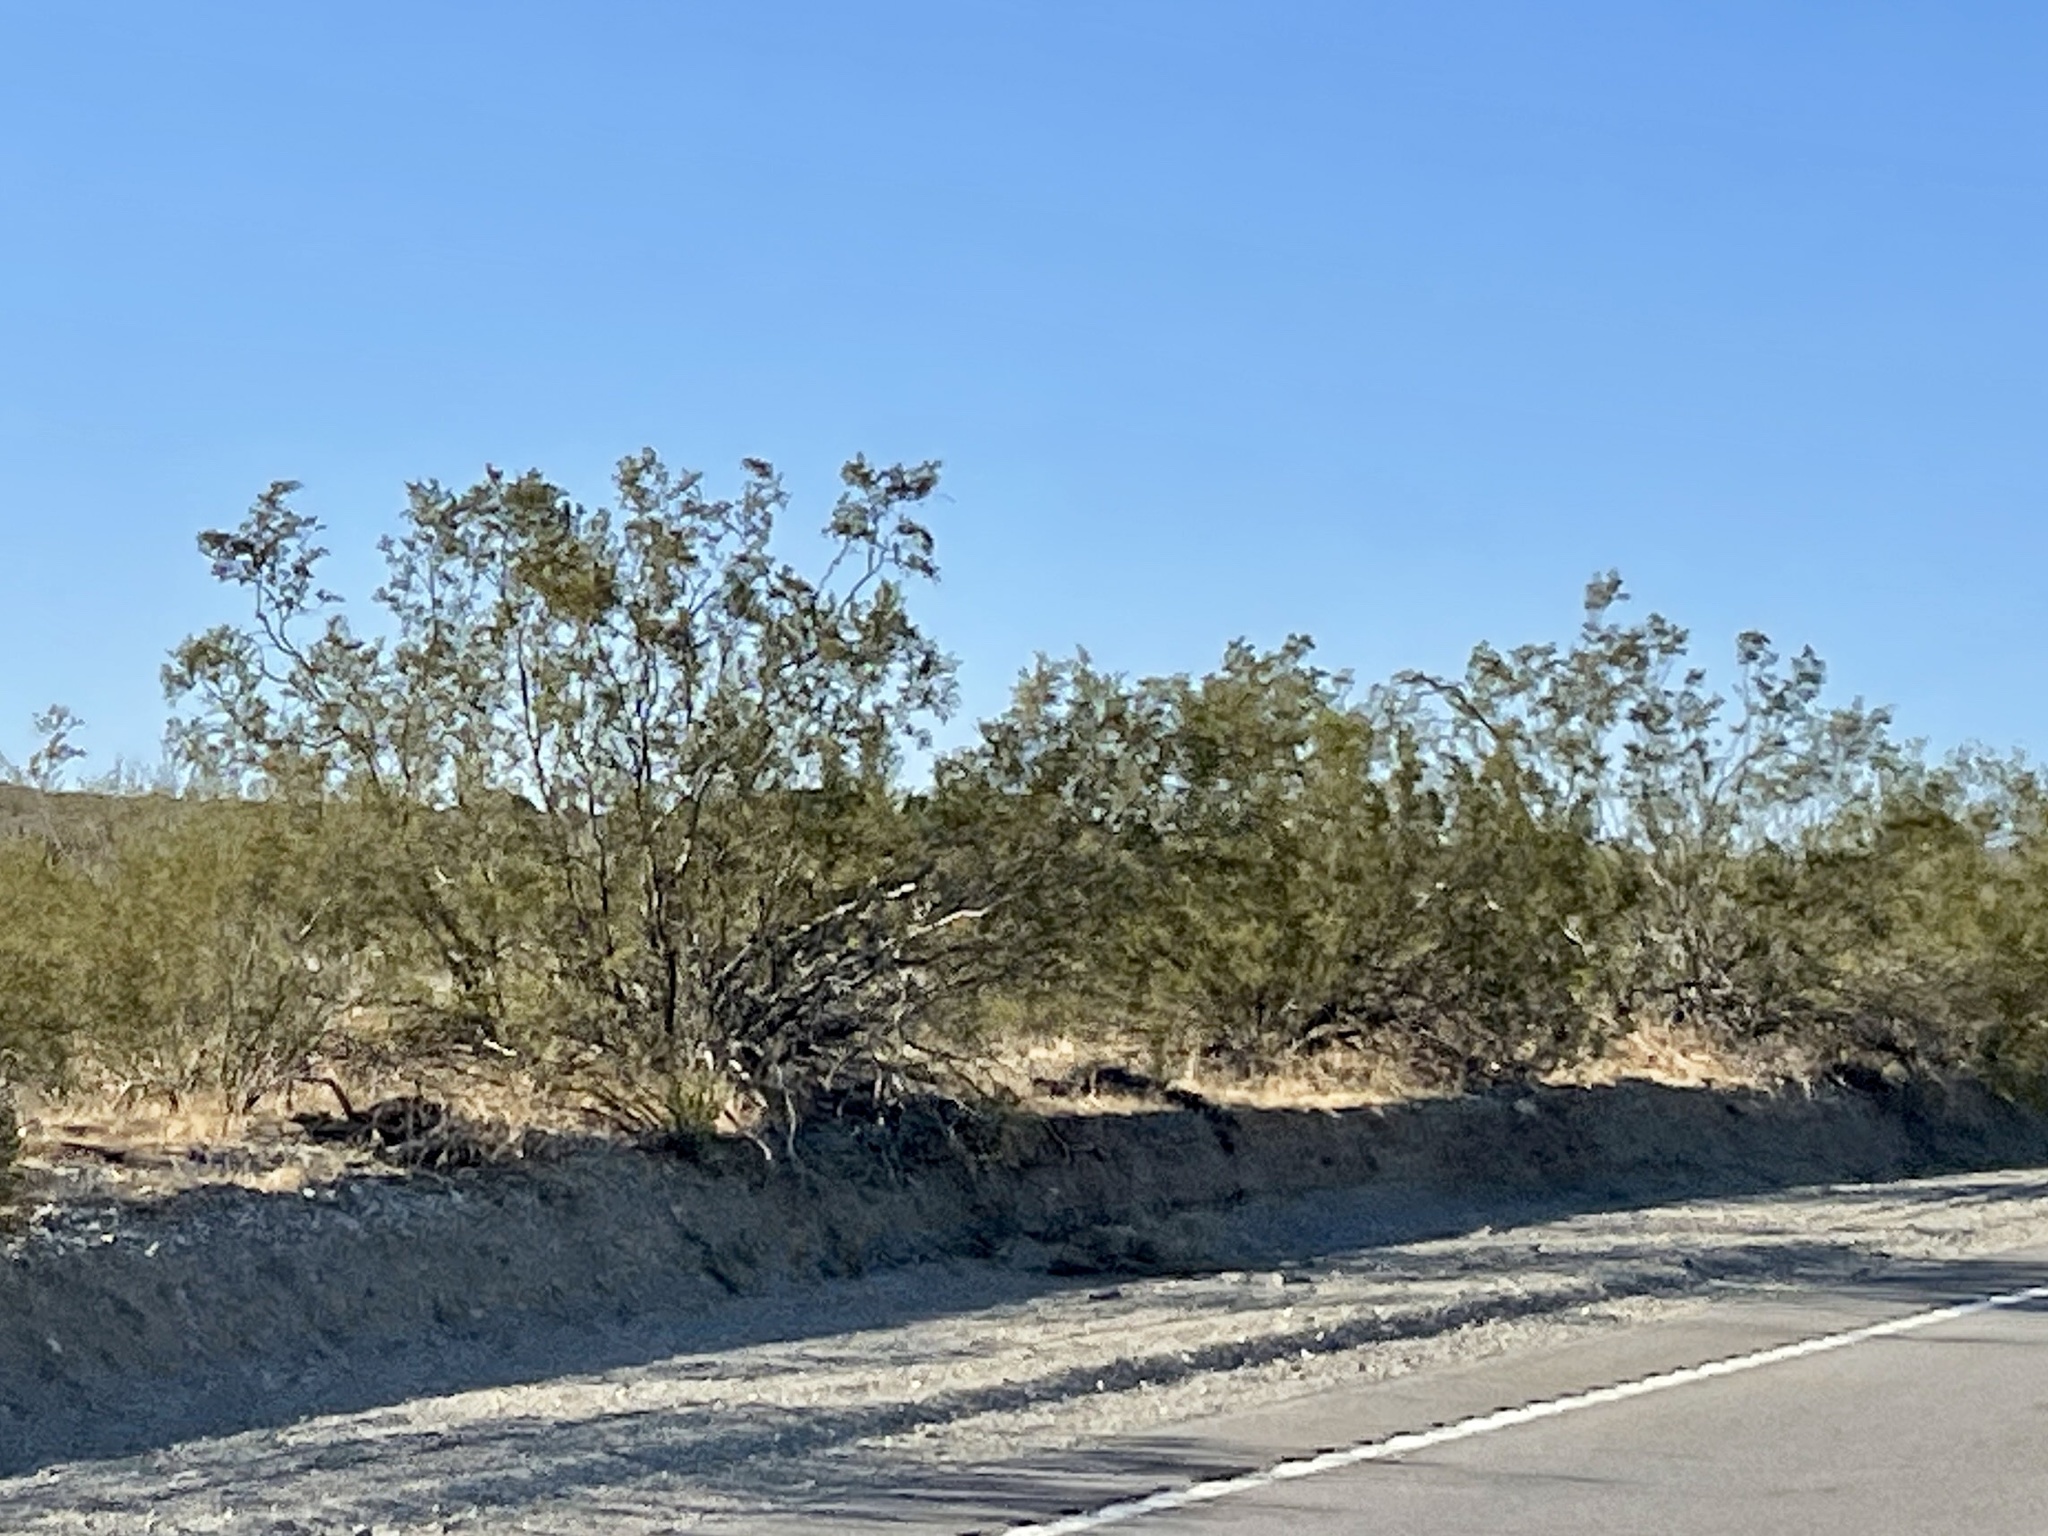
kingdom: Plantae
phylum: Tracheophyta
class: Magnoliopsida
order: Zygophyllales
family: Zygophyllaceae
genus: Larrea
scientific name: Larrea tridentata
